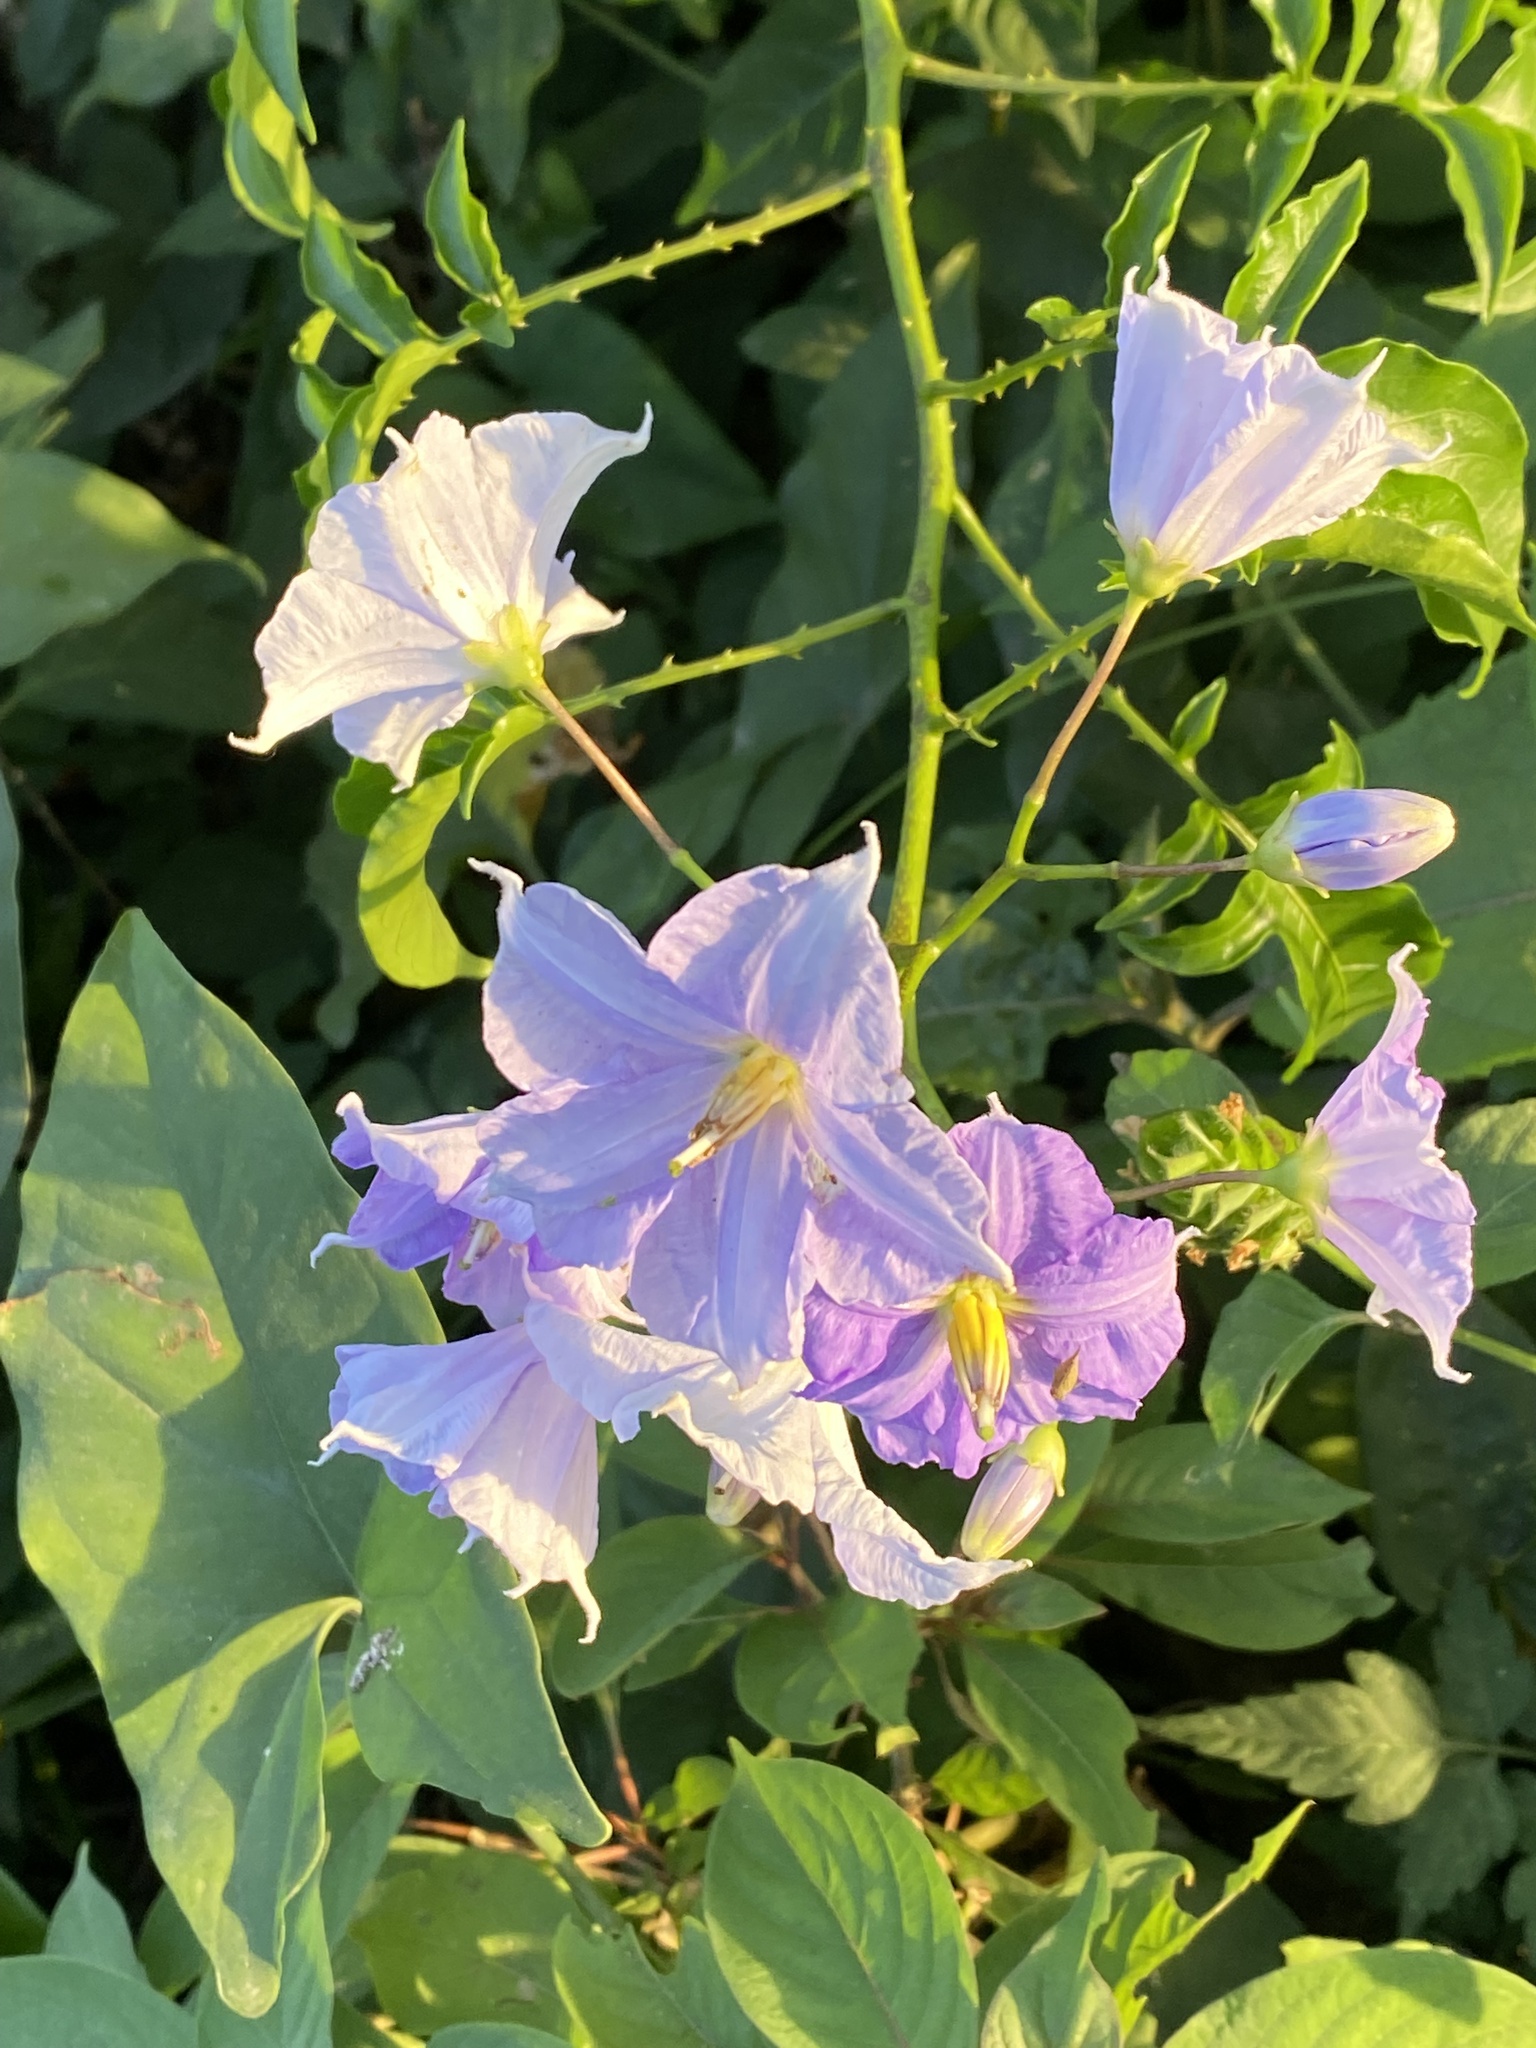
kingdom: Plantae
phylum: Tracheophyta
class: Magnoliopsida
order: Solanales
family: Solanaceae
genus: Solanum
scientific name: Solanum wendlandii
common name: Costa rican nightshade
